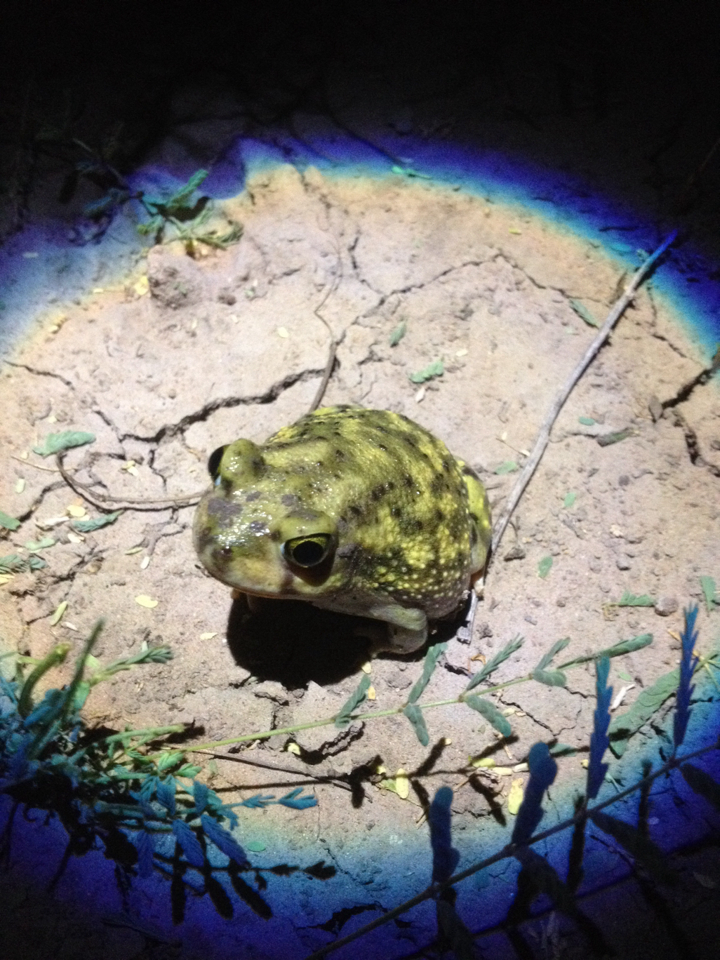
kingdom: Animalia
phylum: Chordata
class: Amphibia
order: Anura
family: Scaphiopodidae
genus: Scaphiopus
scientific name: Scaphiopus couchii
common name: Couch's spadefoot toad
